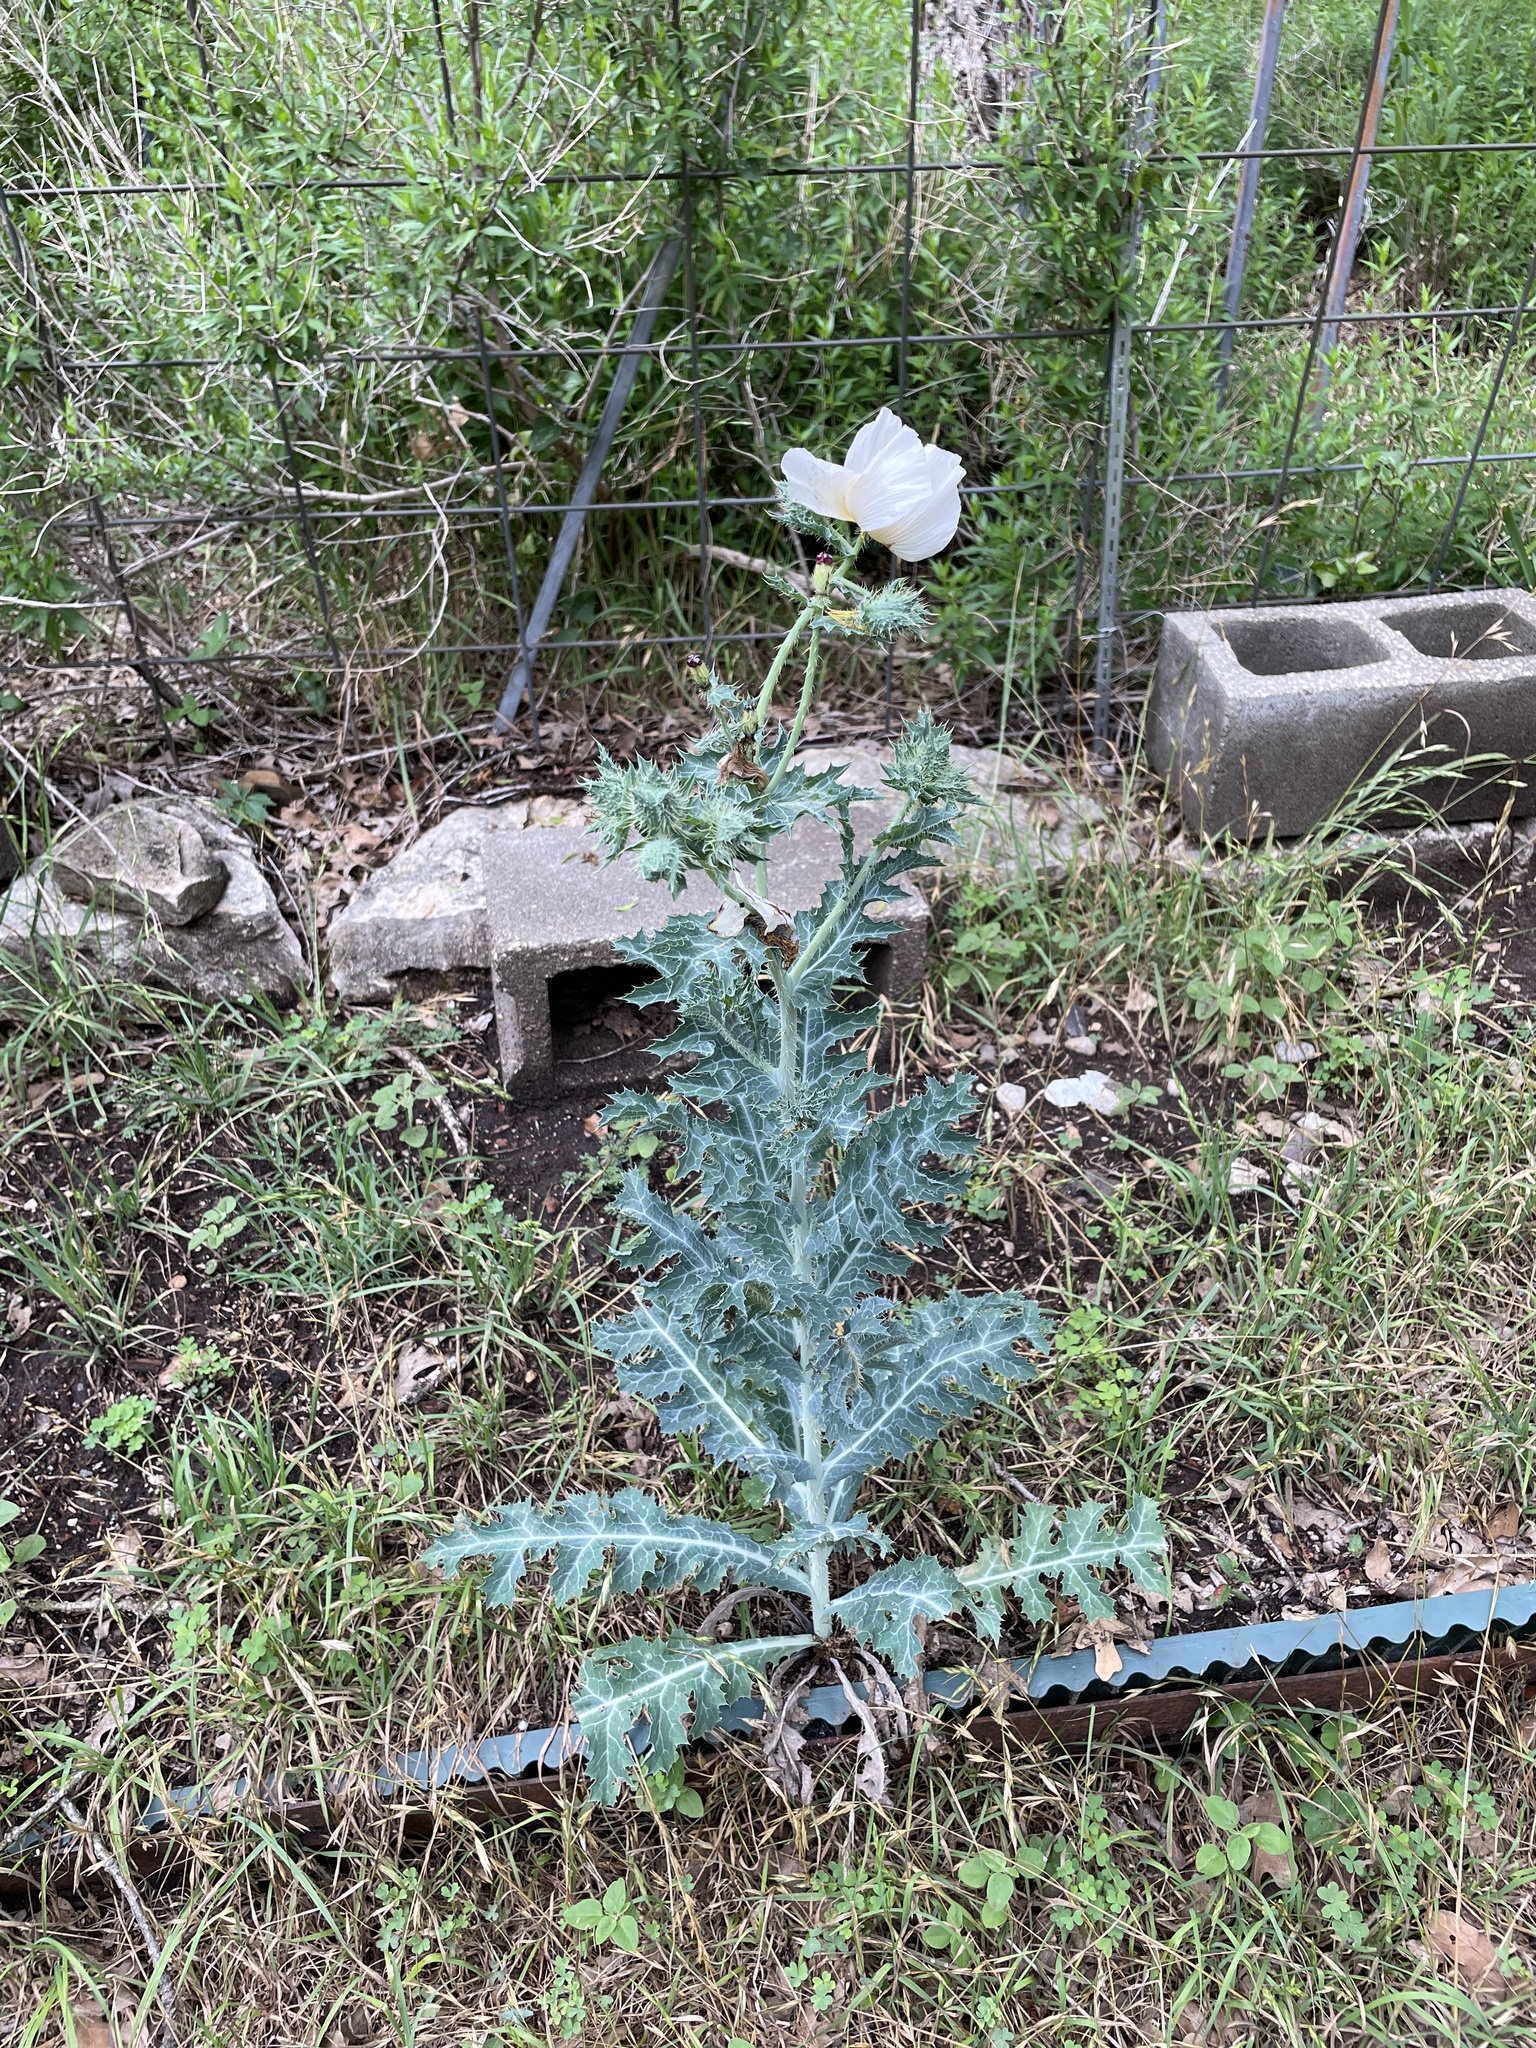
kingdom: Plantae
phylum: Tracheophyta
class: Magnoliopsida
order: Ranunculales
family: Papaveraceae
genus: Argemone
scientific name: Argemone albiflora
